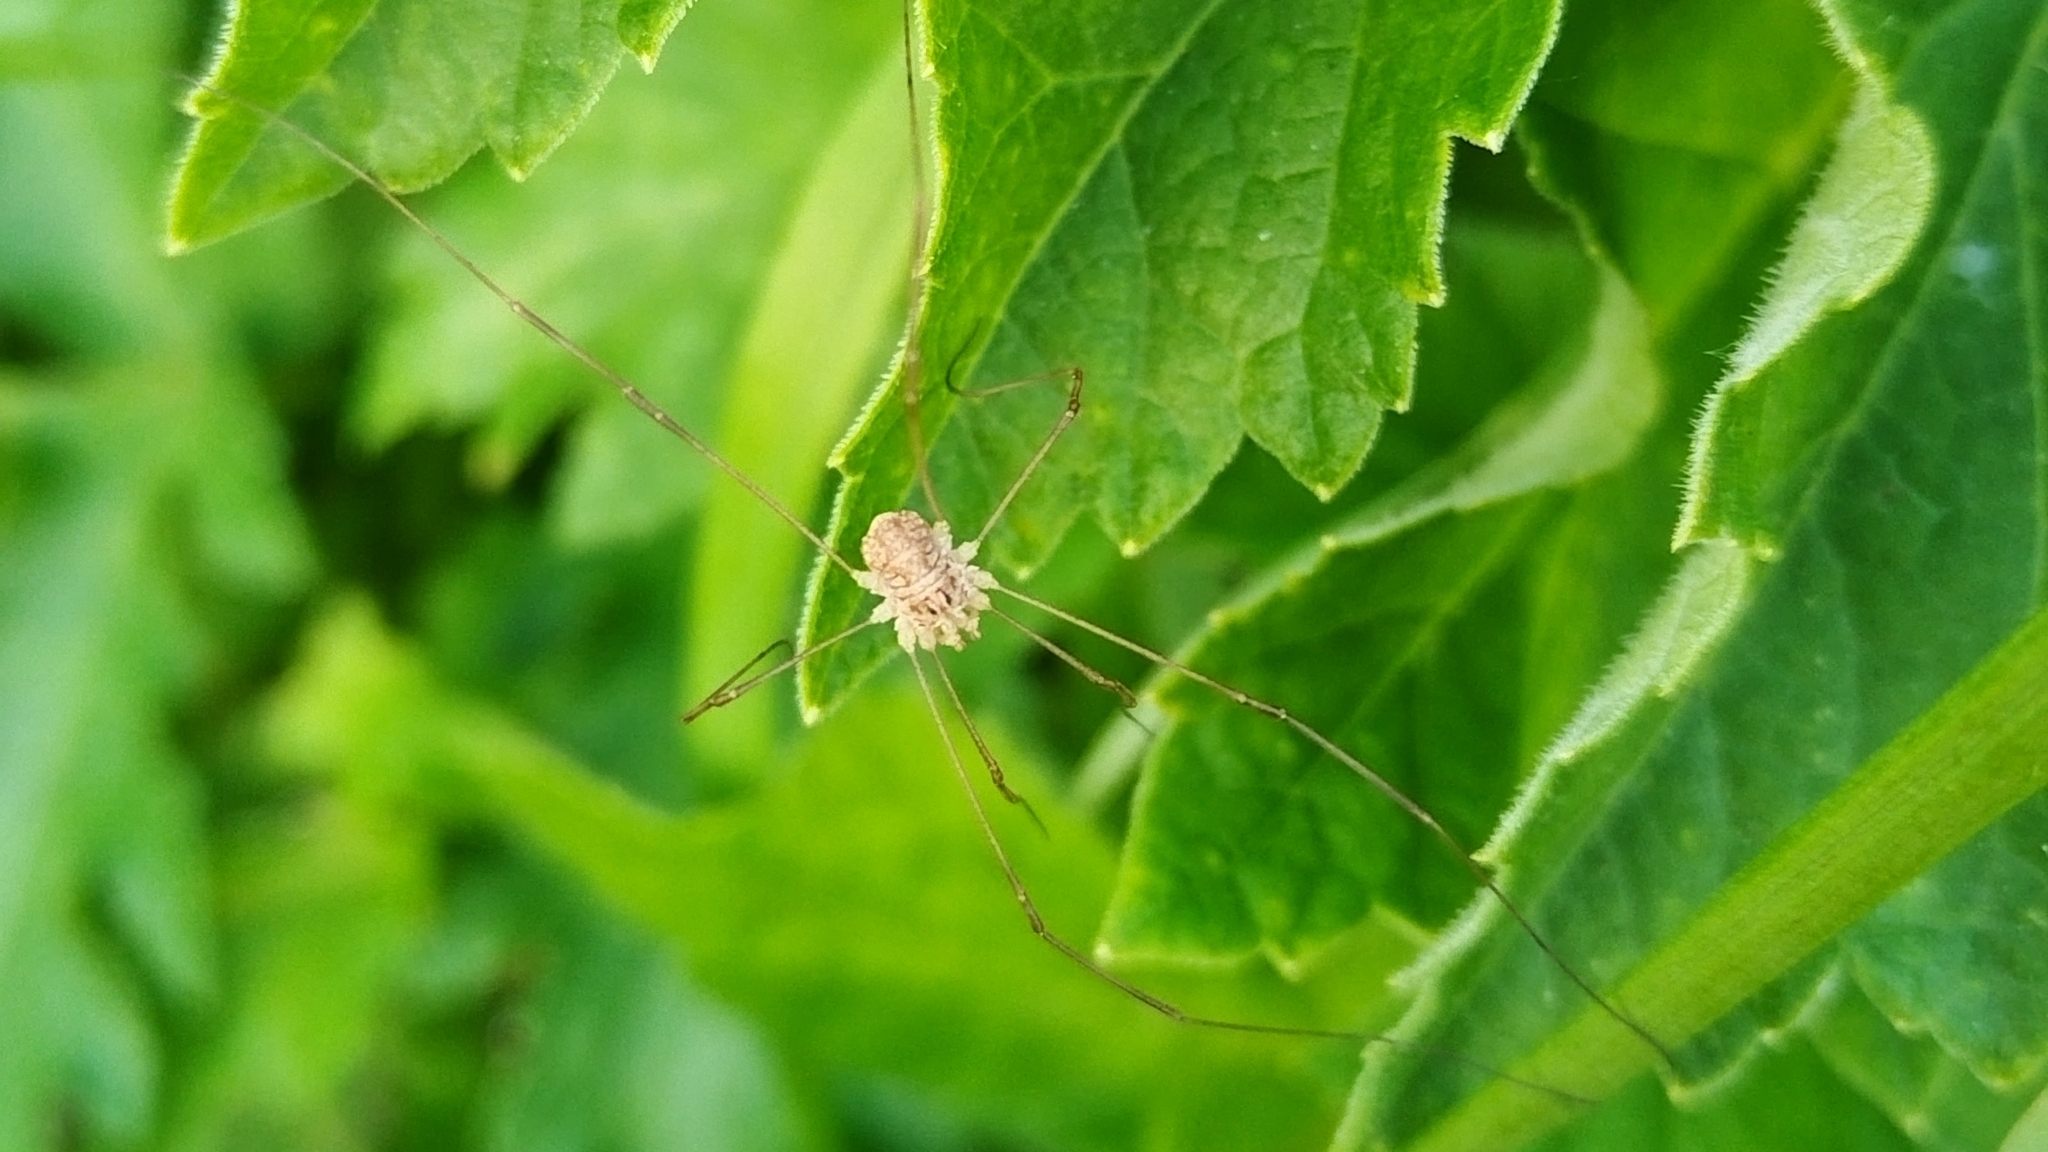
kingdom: Animalia
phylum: Arthropoda
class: Arachnida
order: Opiliones
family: Phalangiidae
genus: Rilaena
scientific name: Rilaena triangularis
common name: Spring harvestman
